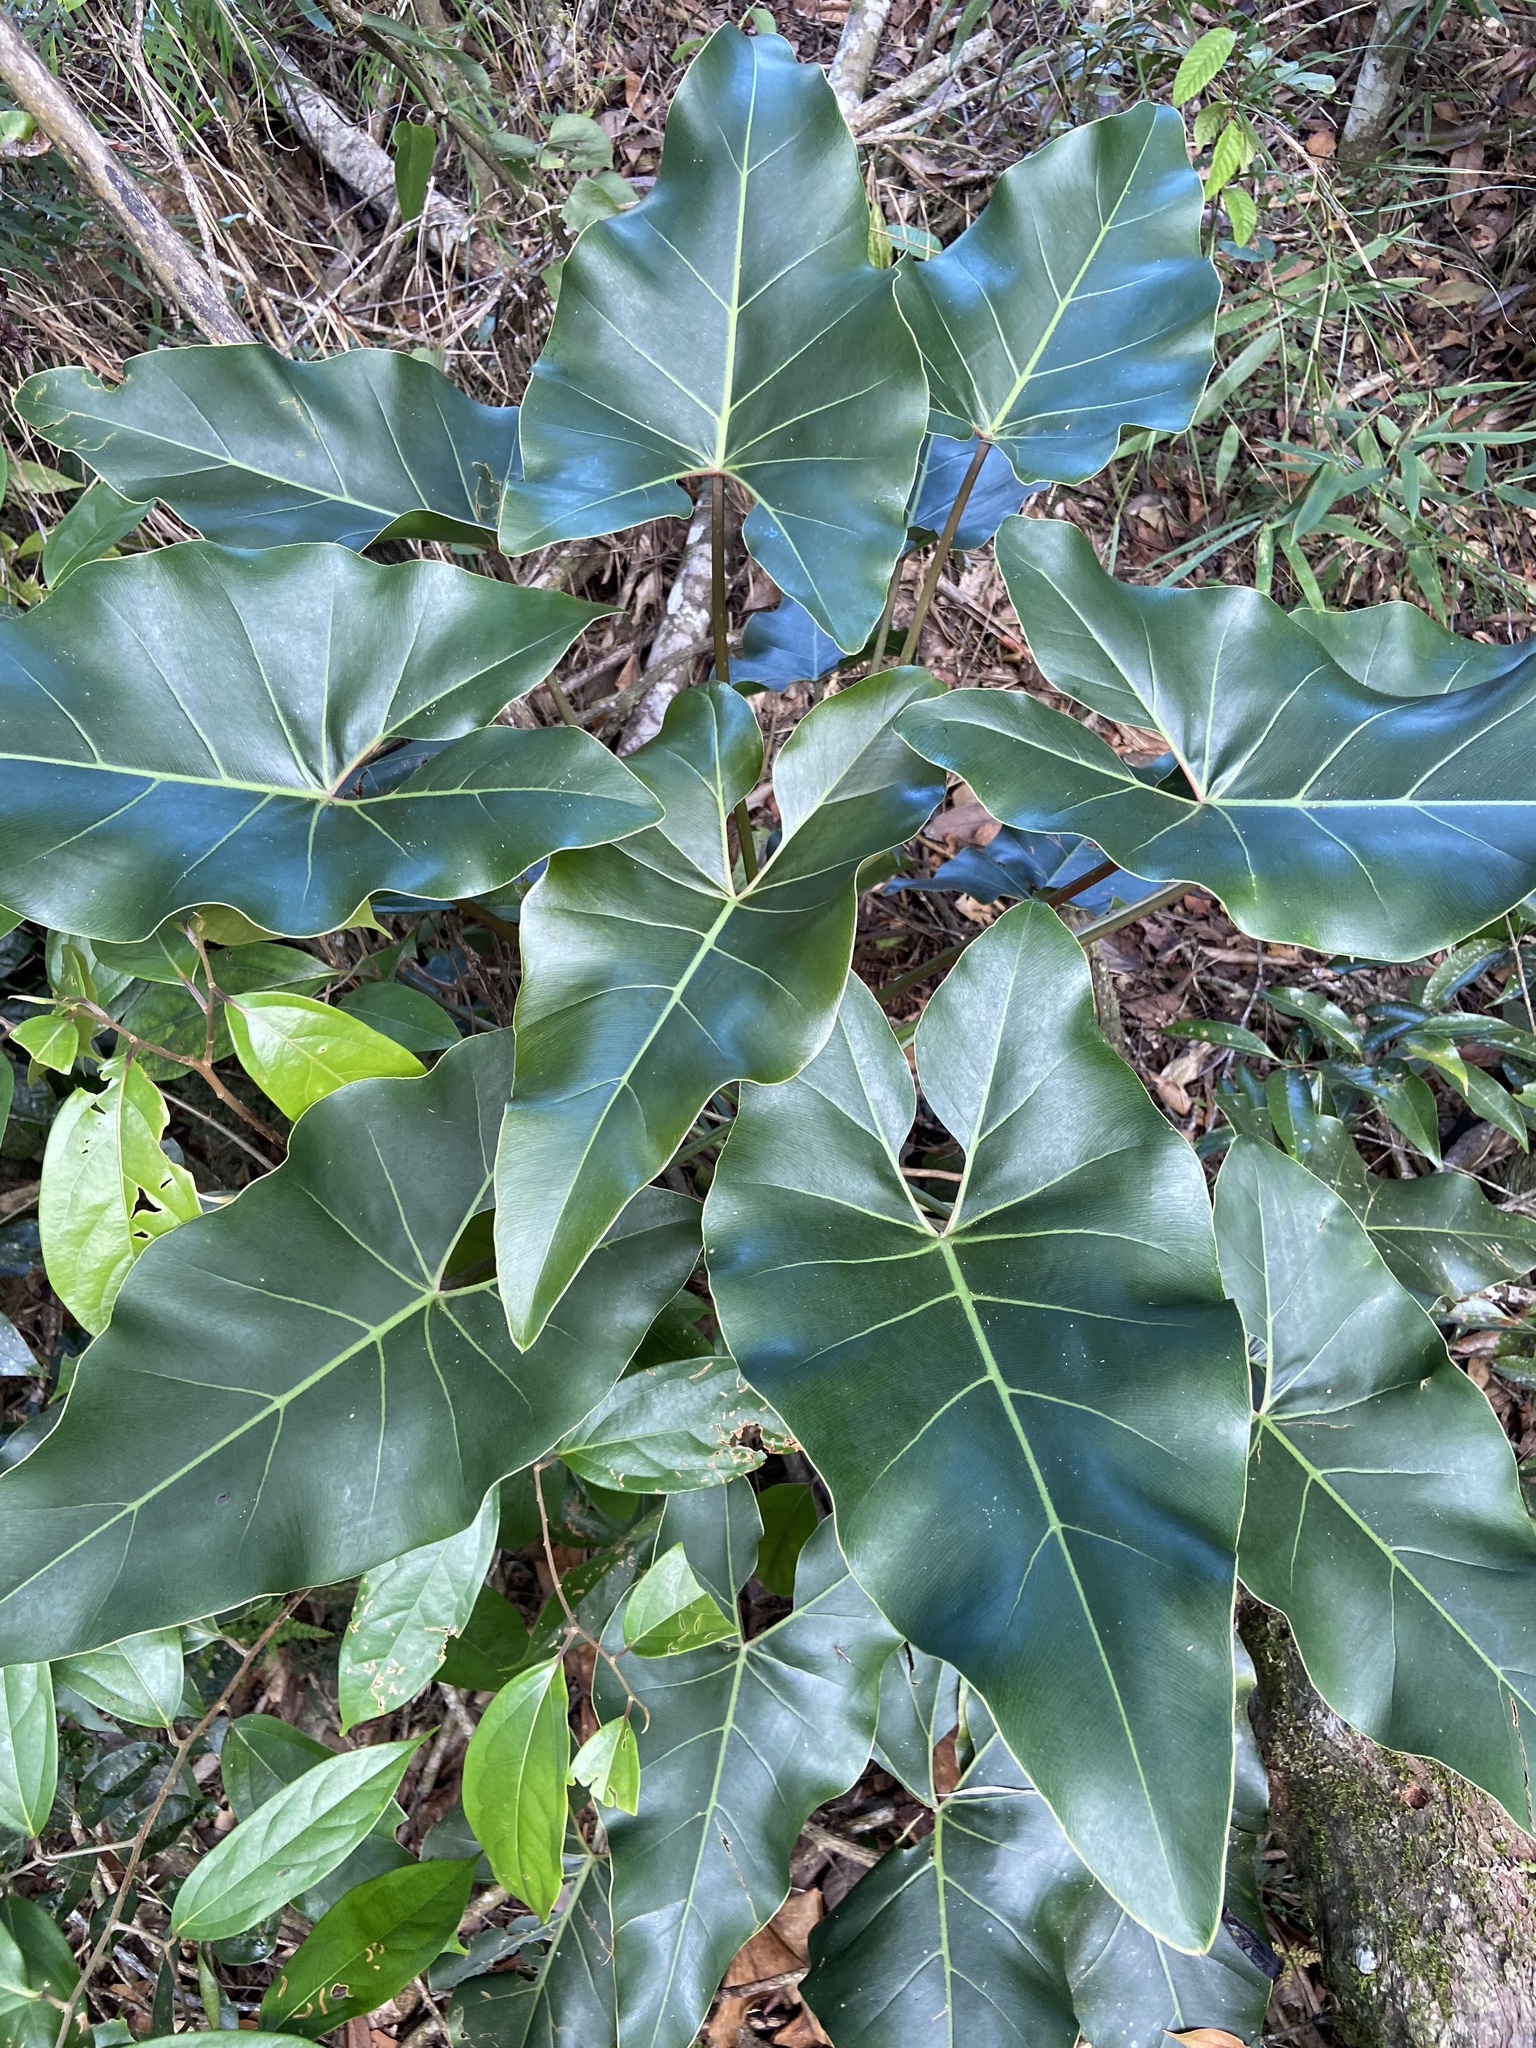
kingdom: Plantae
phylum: Tracheophyta
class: Liliopsida
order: Alismatales
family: Araceae
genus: Thaumatophyllum
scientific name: Thaumatophyllum corcovadense
